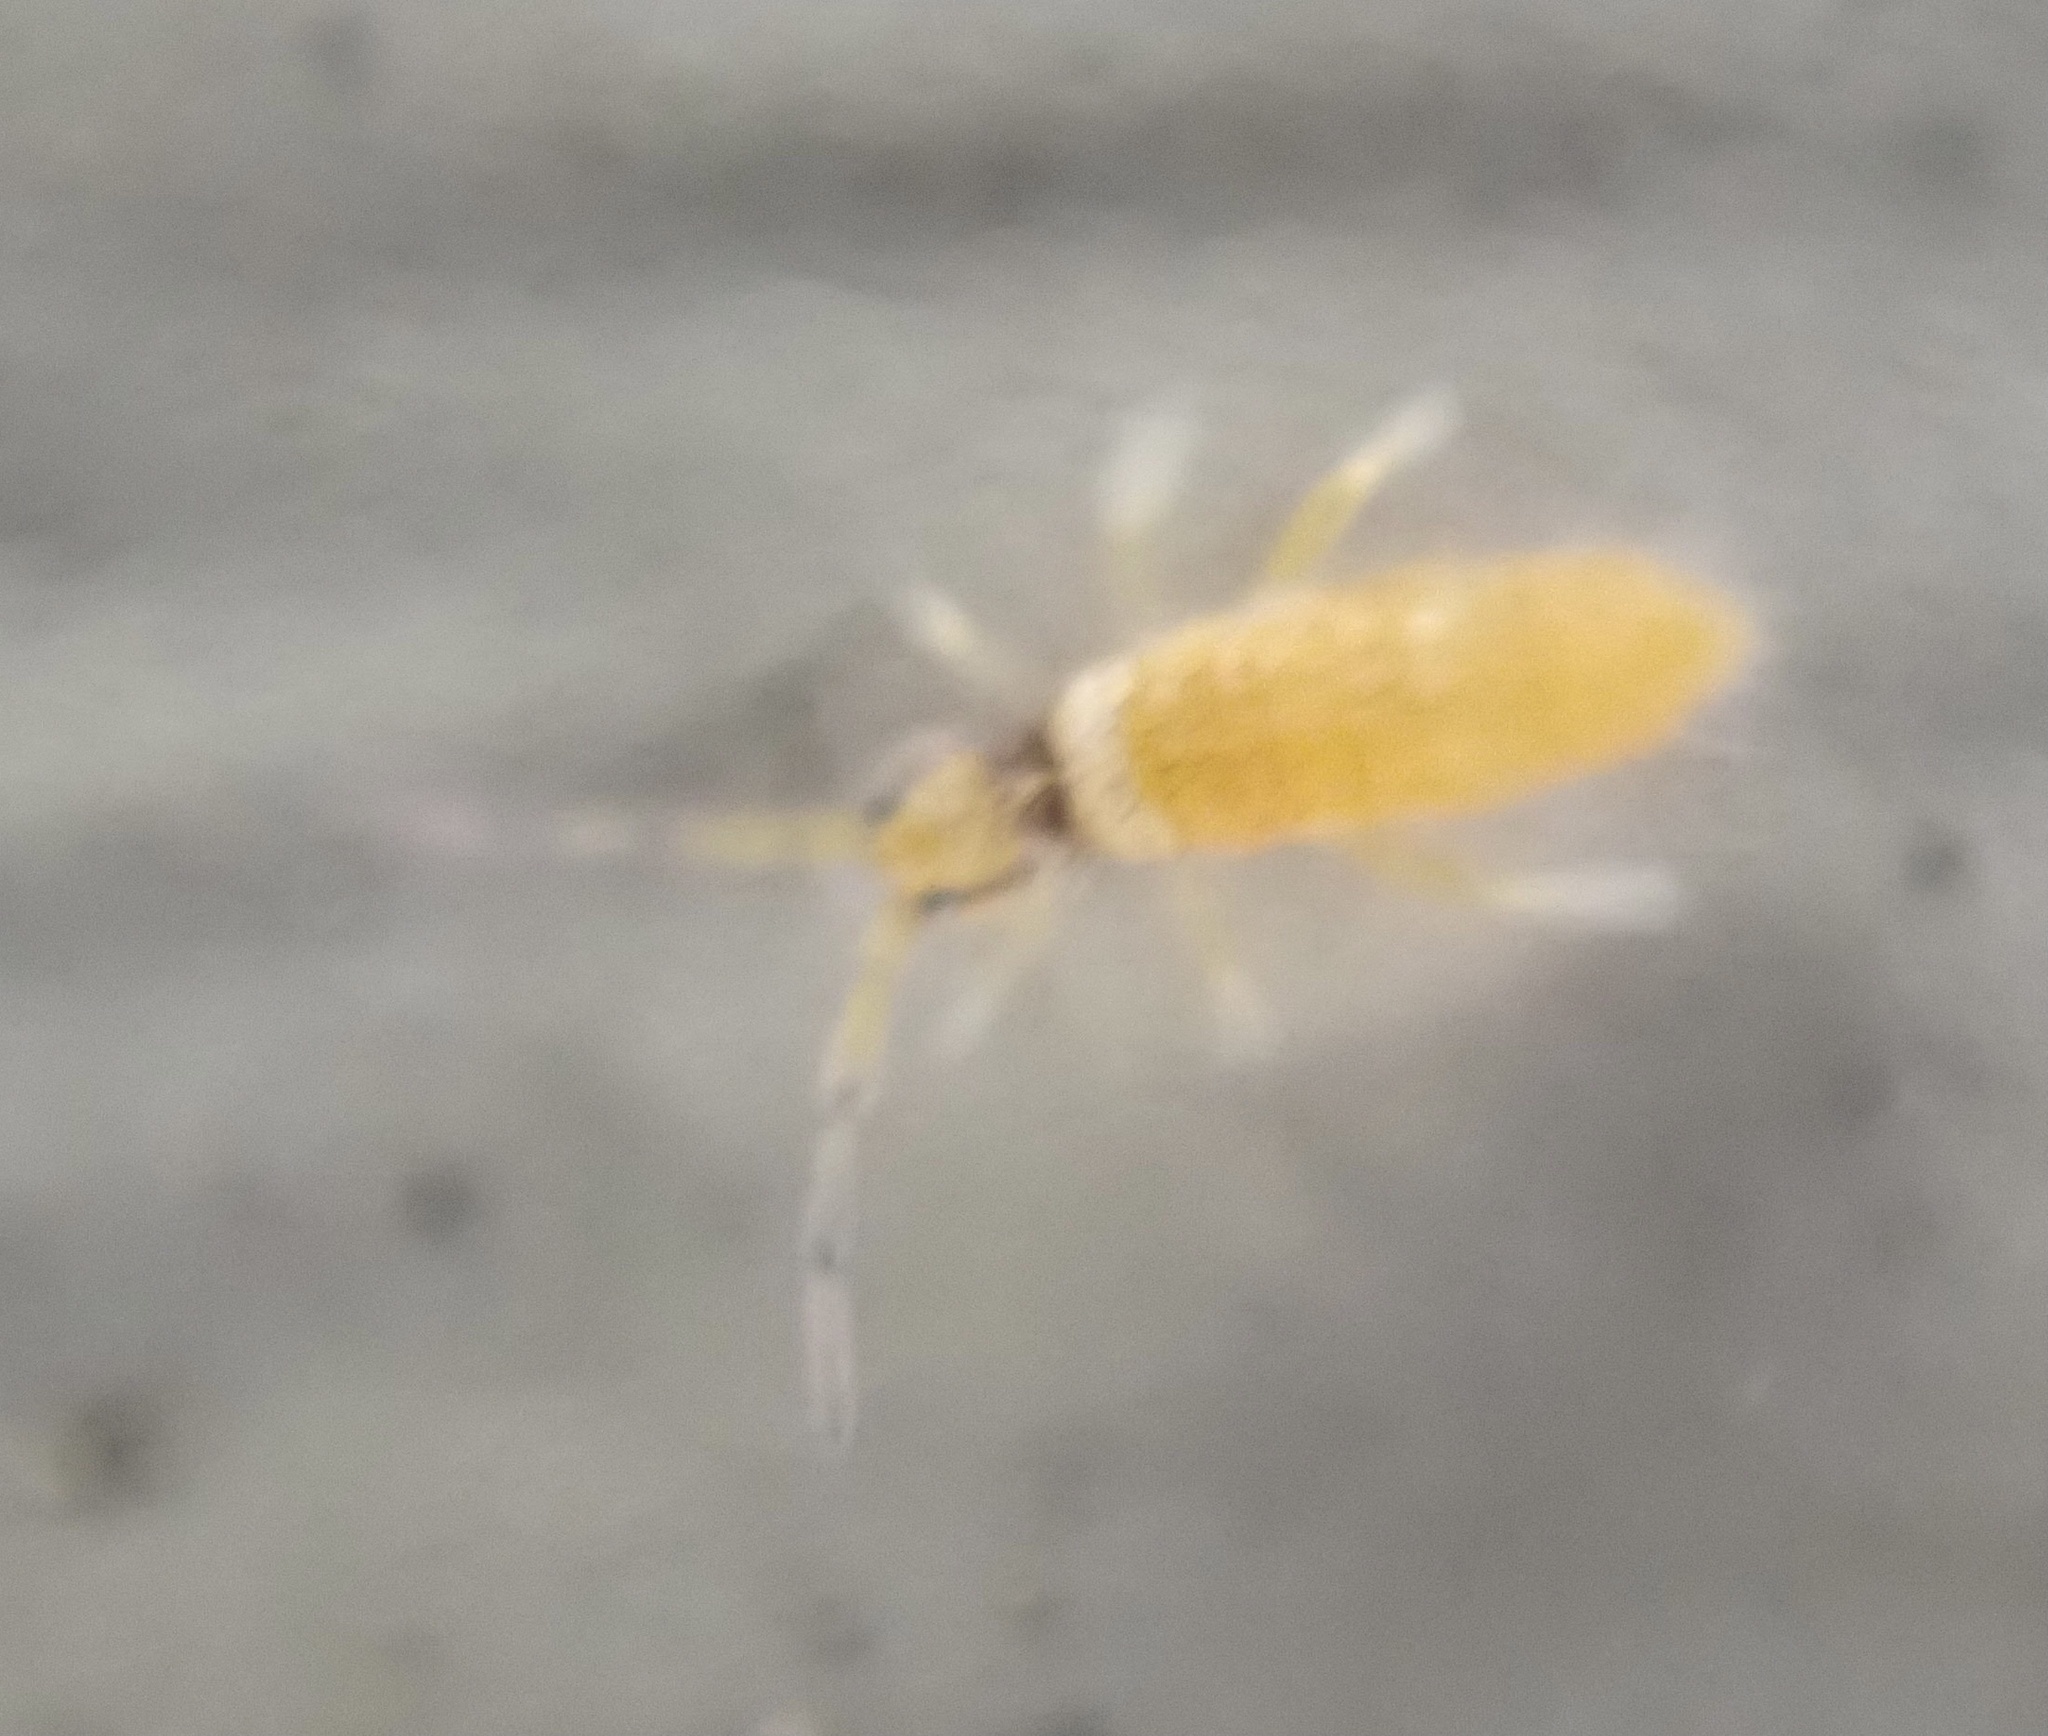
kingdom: Animalia
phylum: Arthropoda
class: Collembola
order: Entomobryomorpha
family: Entomobryidae
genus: Entomobrya
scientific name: Entomobrya atrocincta
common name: Springtail
